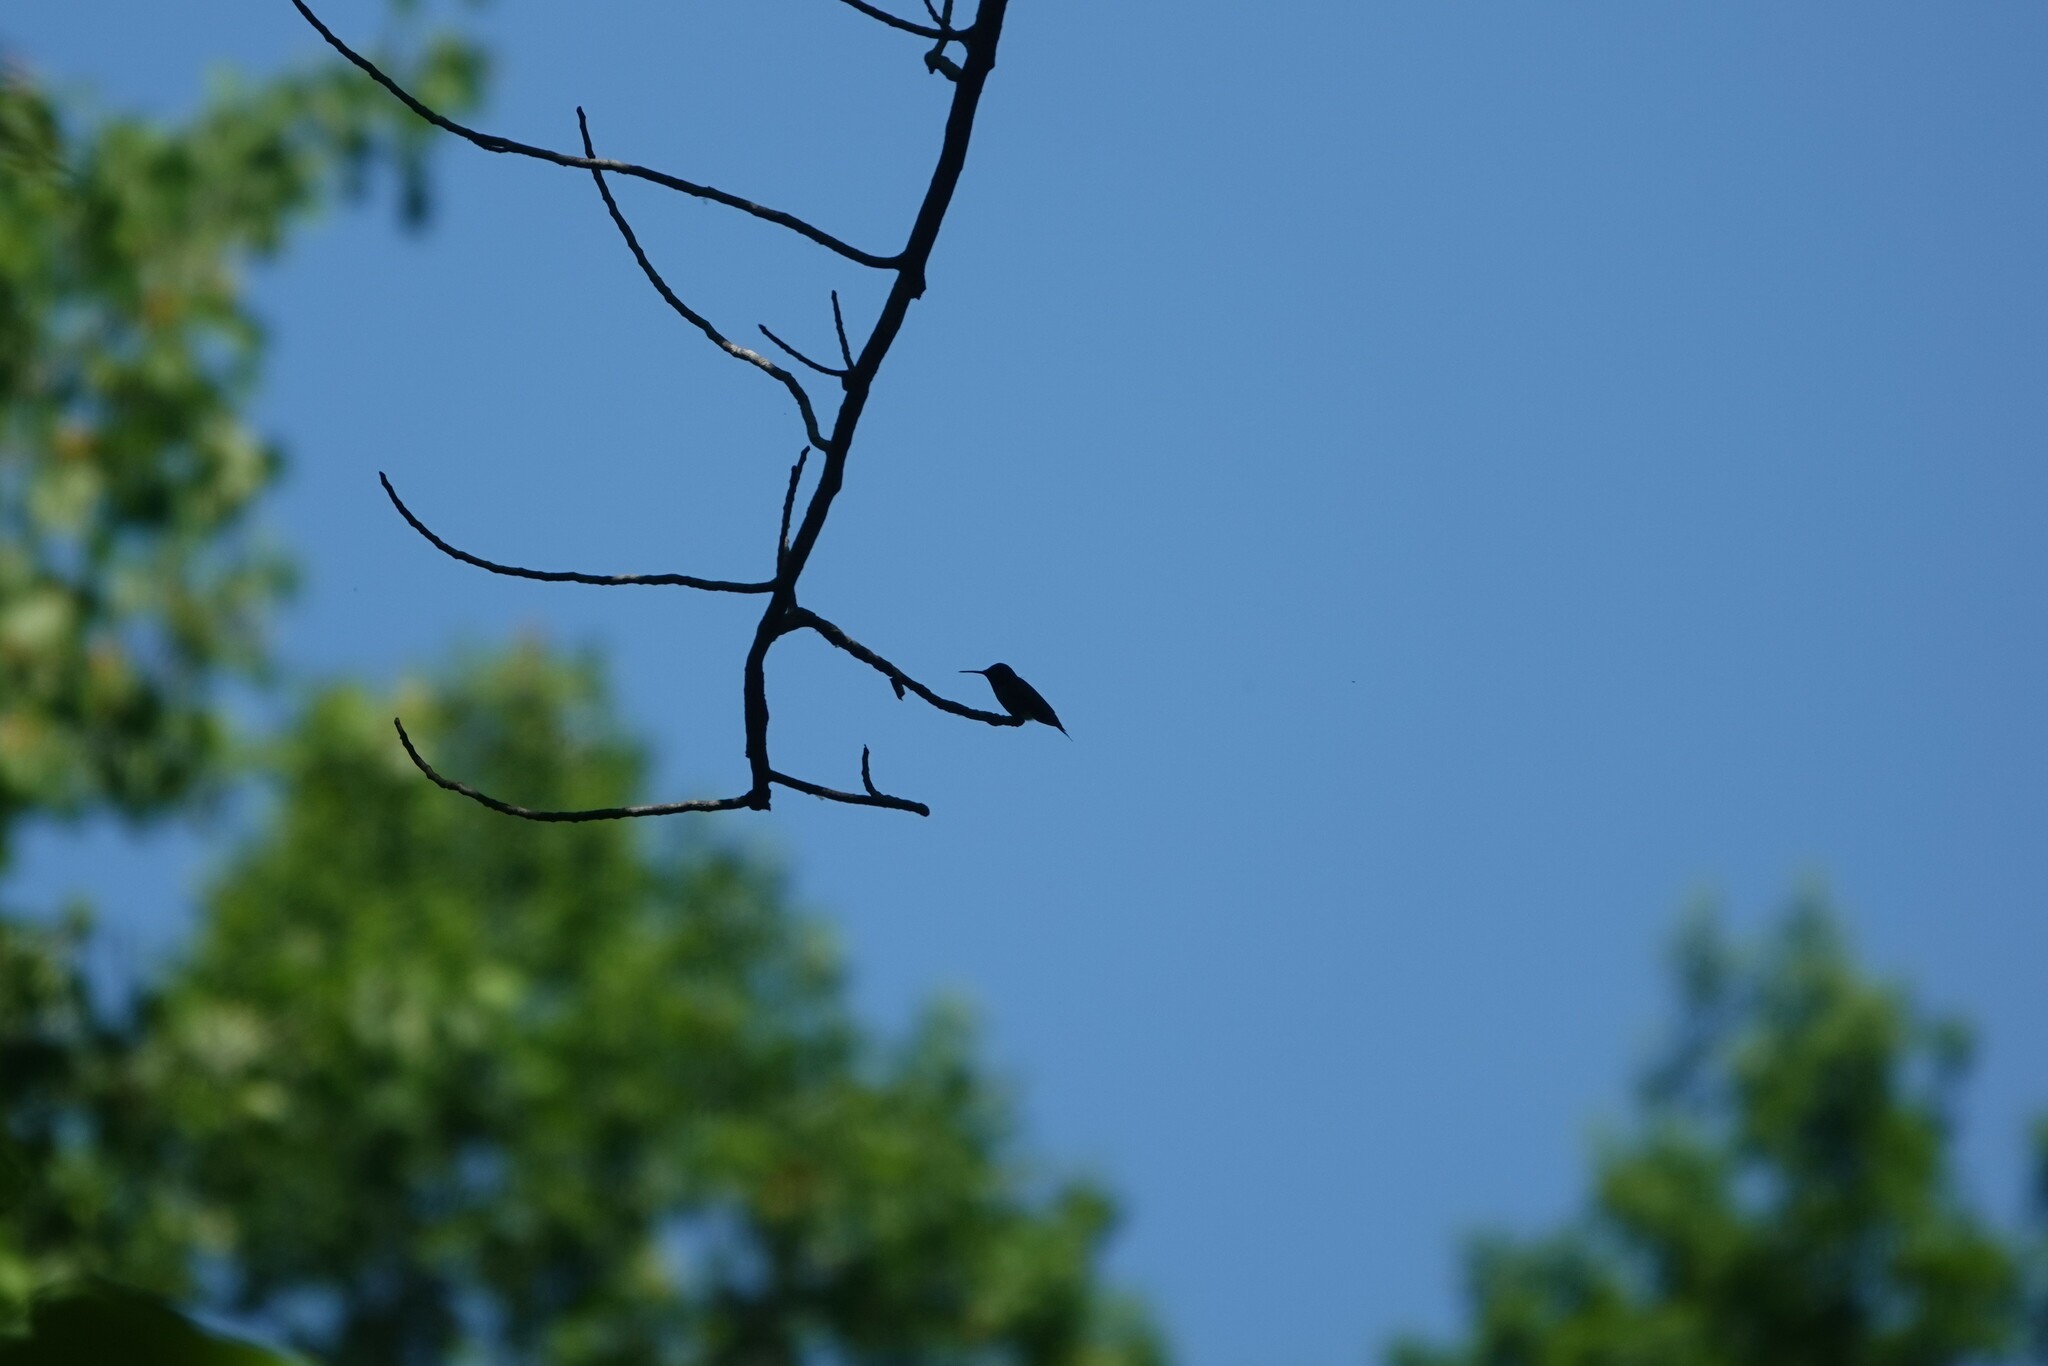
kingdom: Animalia
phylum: Chordata
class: Aves
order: Apodiformes
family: Trochilidae
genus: Archilochus
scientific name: Archilochus colubris
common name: Ruby-throated hummingbird
